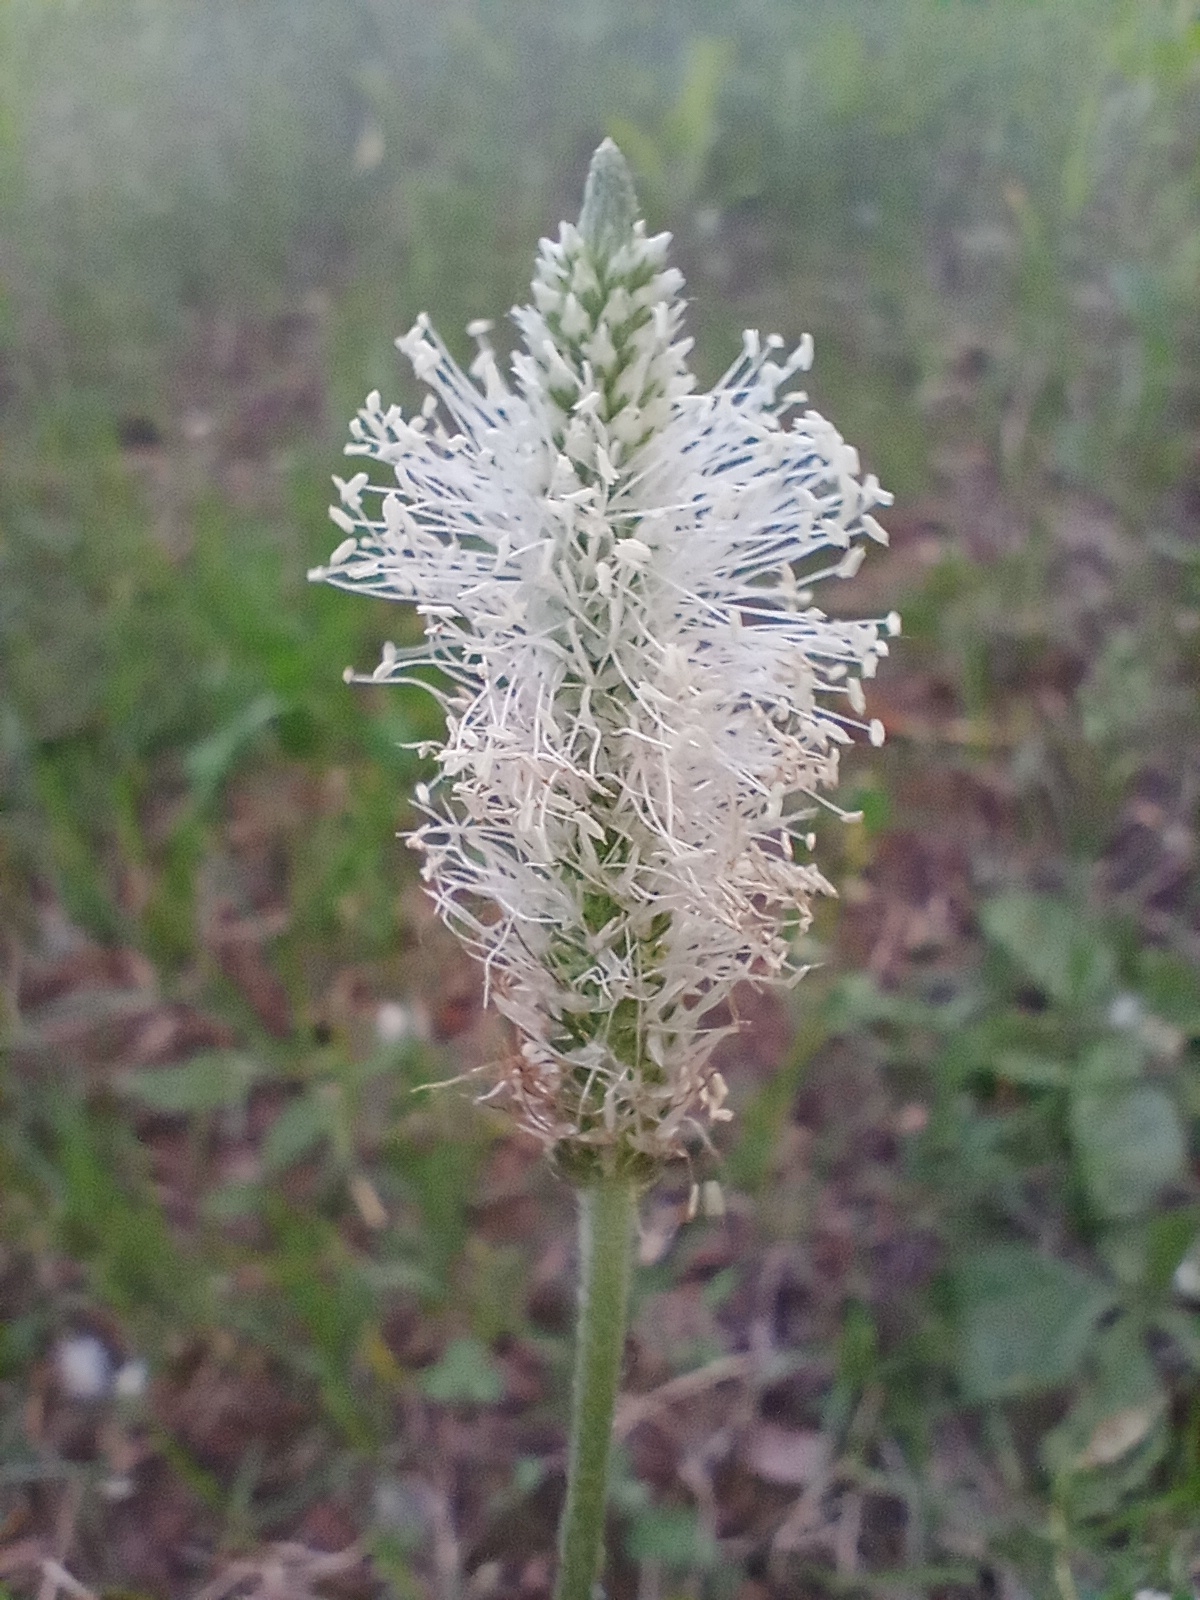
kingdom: Plantae
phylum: Tracheophyta
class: Magnoliopsida
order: Lamiales
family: Plantaginaceae
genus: Plantago
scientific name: Plantago media
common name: Hoary plantain
